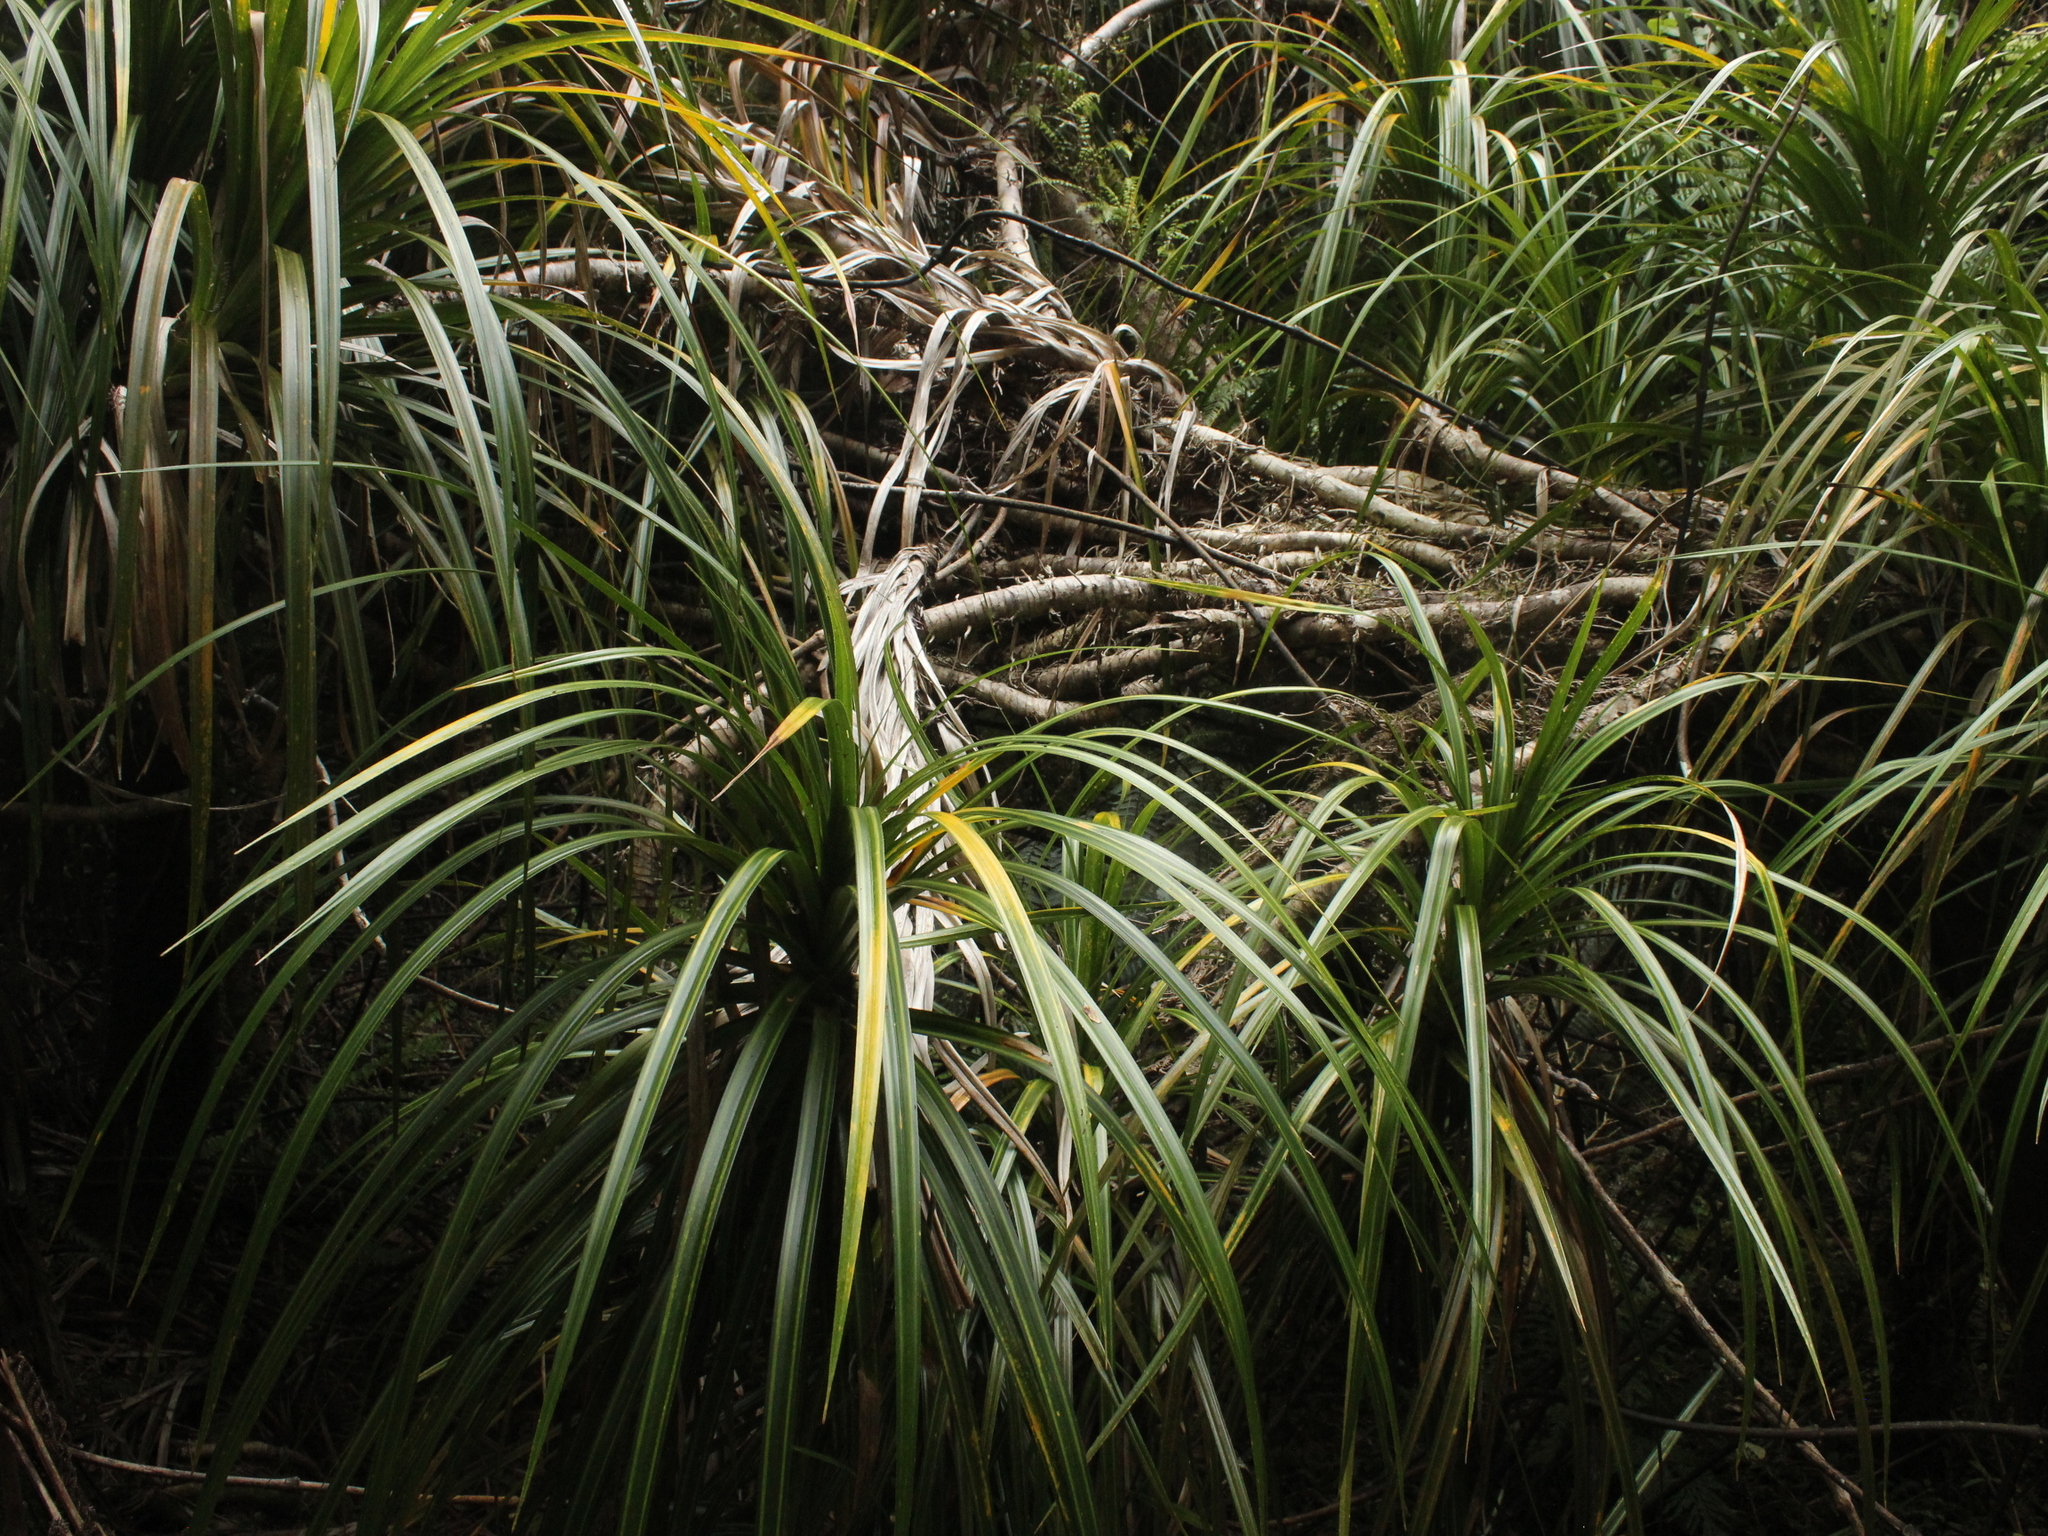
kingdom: Plantae
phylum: Tracheophyta
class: Liliopsida
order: Pandanales
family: Pandanaceae
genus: Freycinetia
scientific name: Freycinetia banksii
